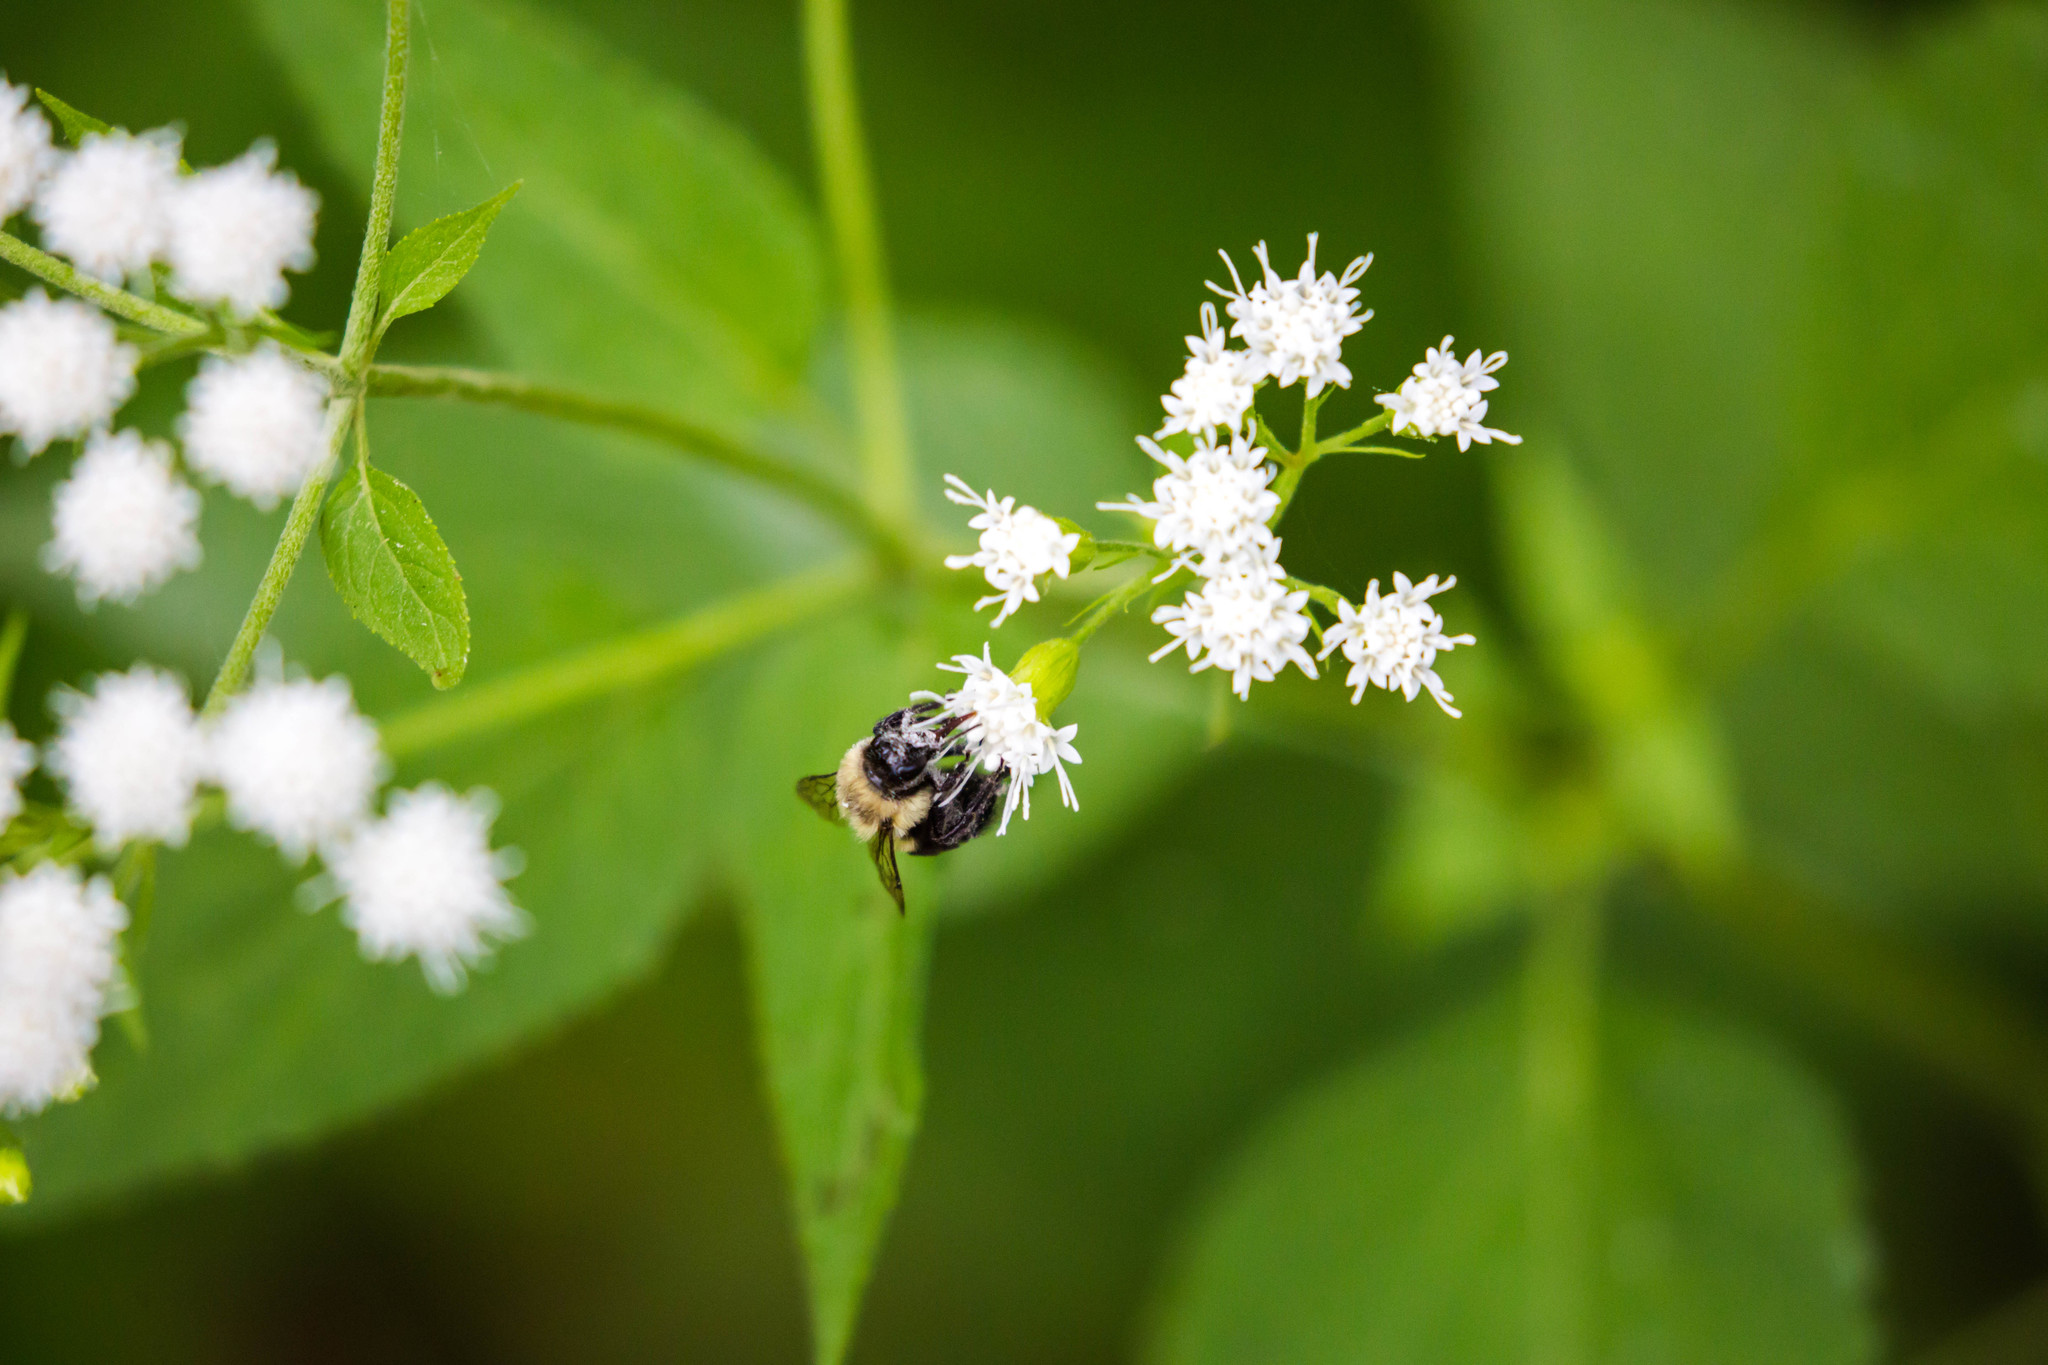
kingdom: Animalia
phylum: Arthropoda
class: Insecta
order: Hymenoptera
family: Apidae
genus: Bombus
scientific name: Bombus impatiens
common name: Common eastern bumble bee
